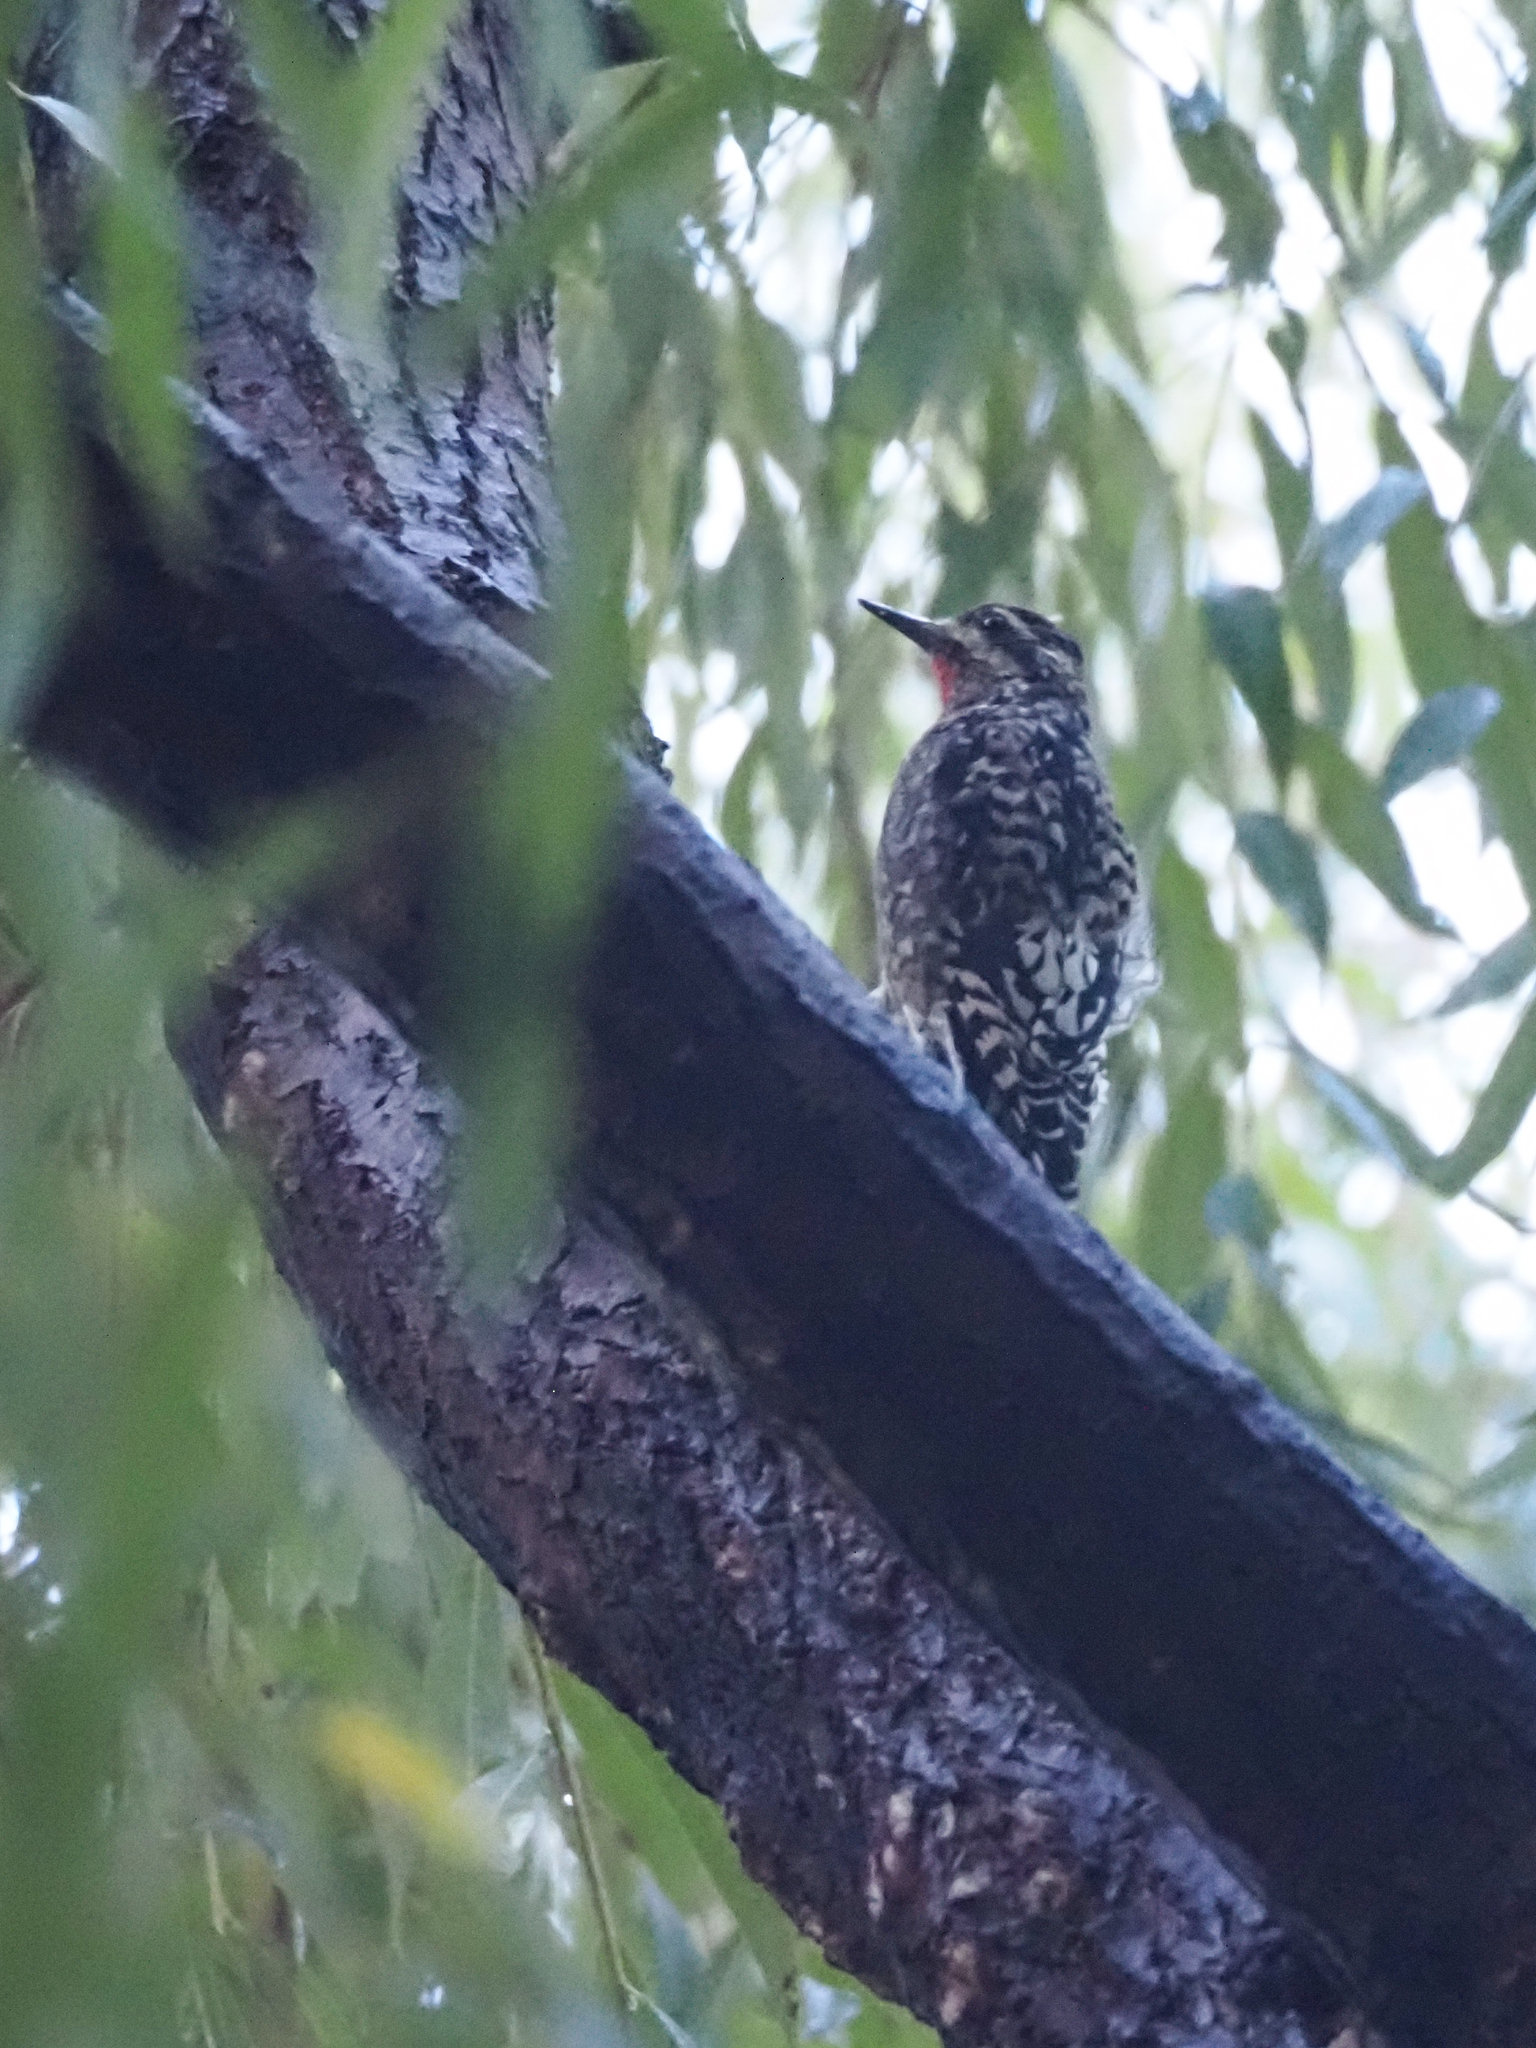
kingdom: Animalia
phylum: Chordata
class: Aves
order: Piciformes
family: Picidae
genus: Sphyrapicus
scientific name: Sphyrapicus varius
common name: Yellow-bellied sapsucker
